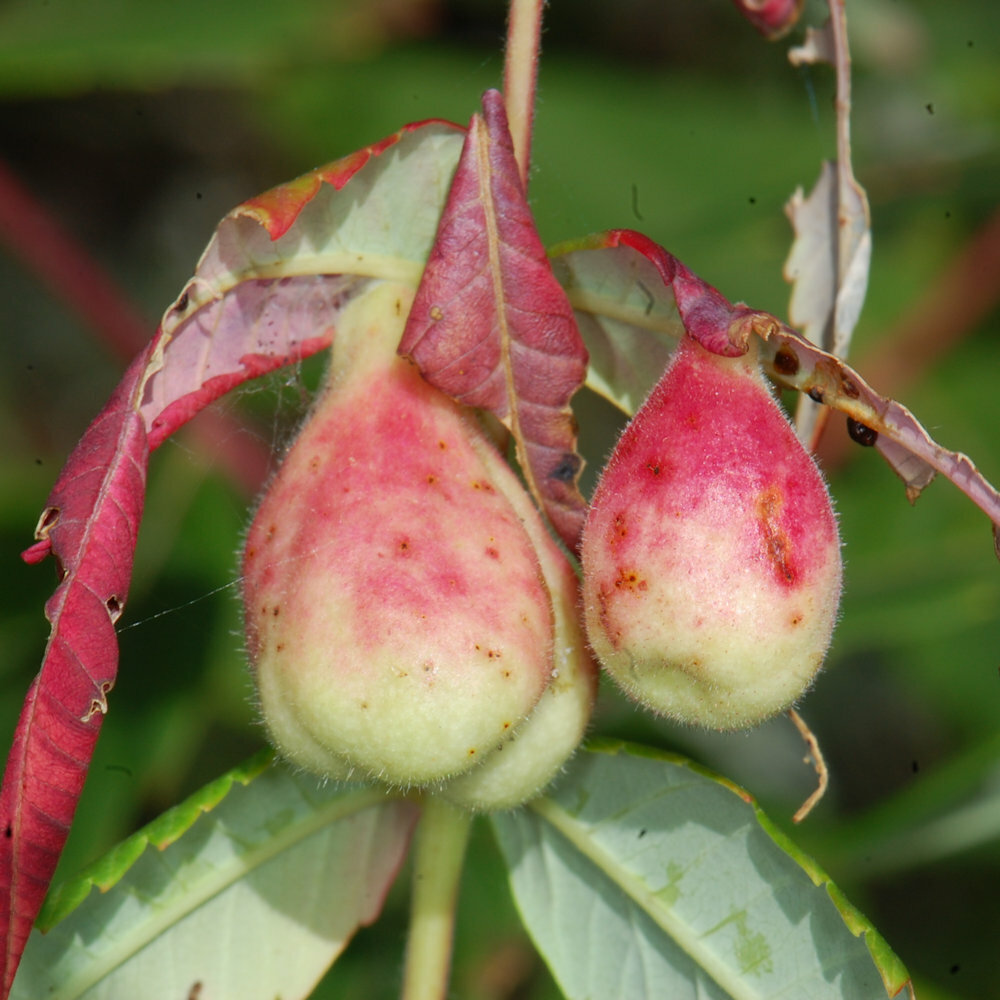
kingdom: Animalia
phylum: Arthropoda
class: Insecta
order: Hemiptera
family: Aphididae
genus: Melaphis
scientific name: Melaphis rhois
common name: Sumac gall aphid
